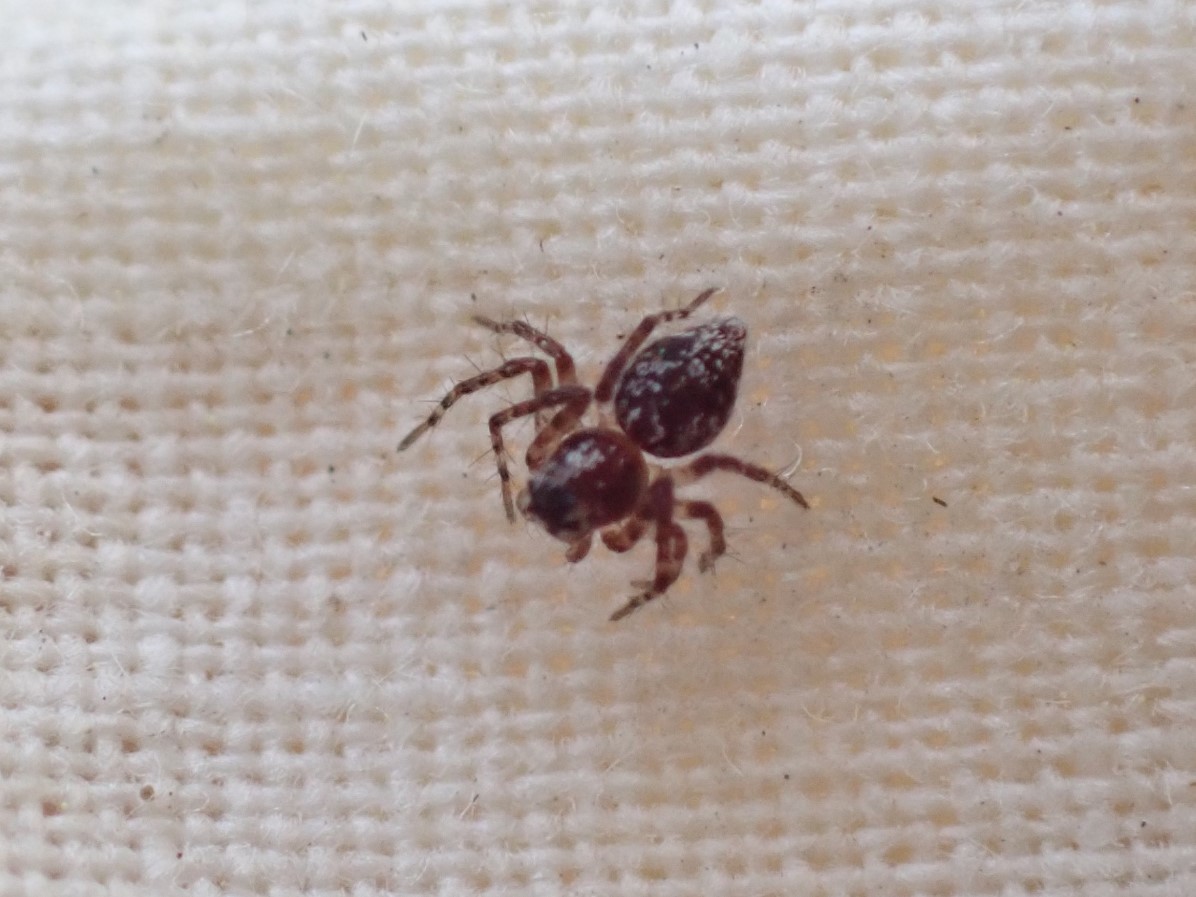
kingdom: Animalia
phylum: Arthropoda
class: Arachnida
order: Araneae
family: Oxyopidae
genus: Oxyopes
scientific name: Oxyopes scalaris
